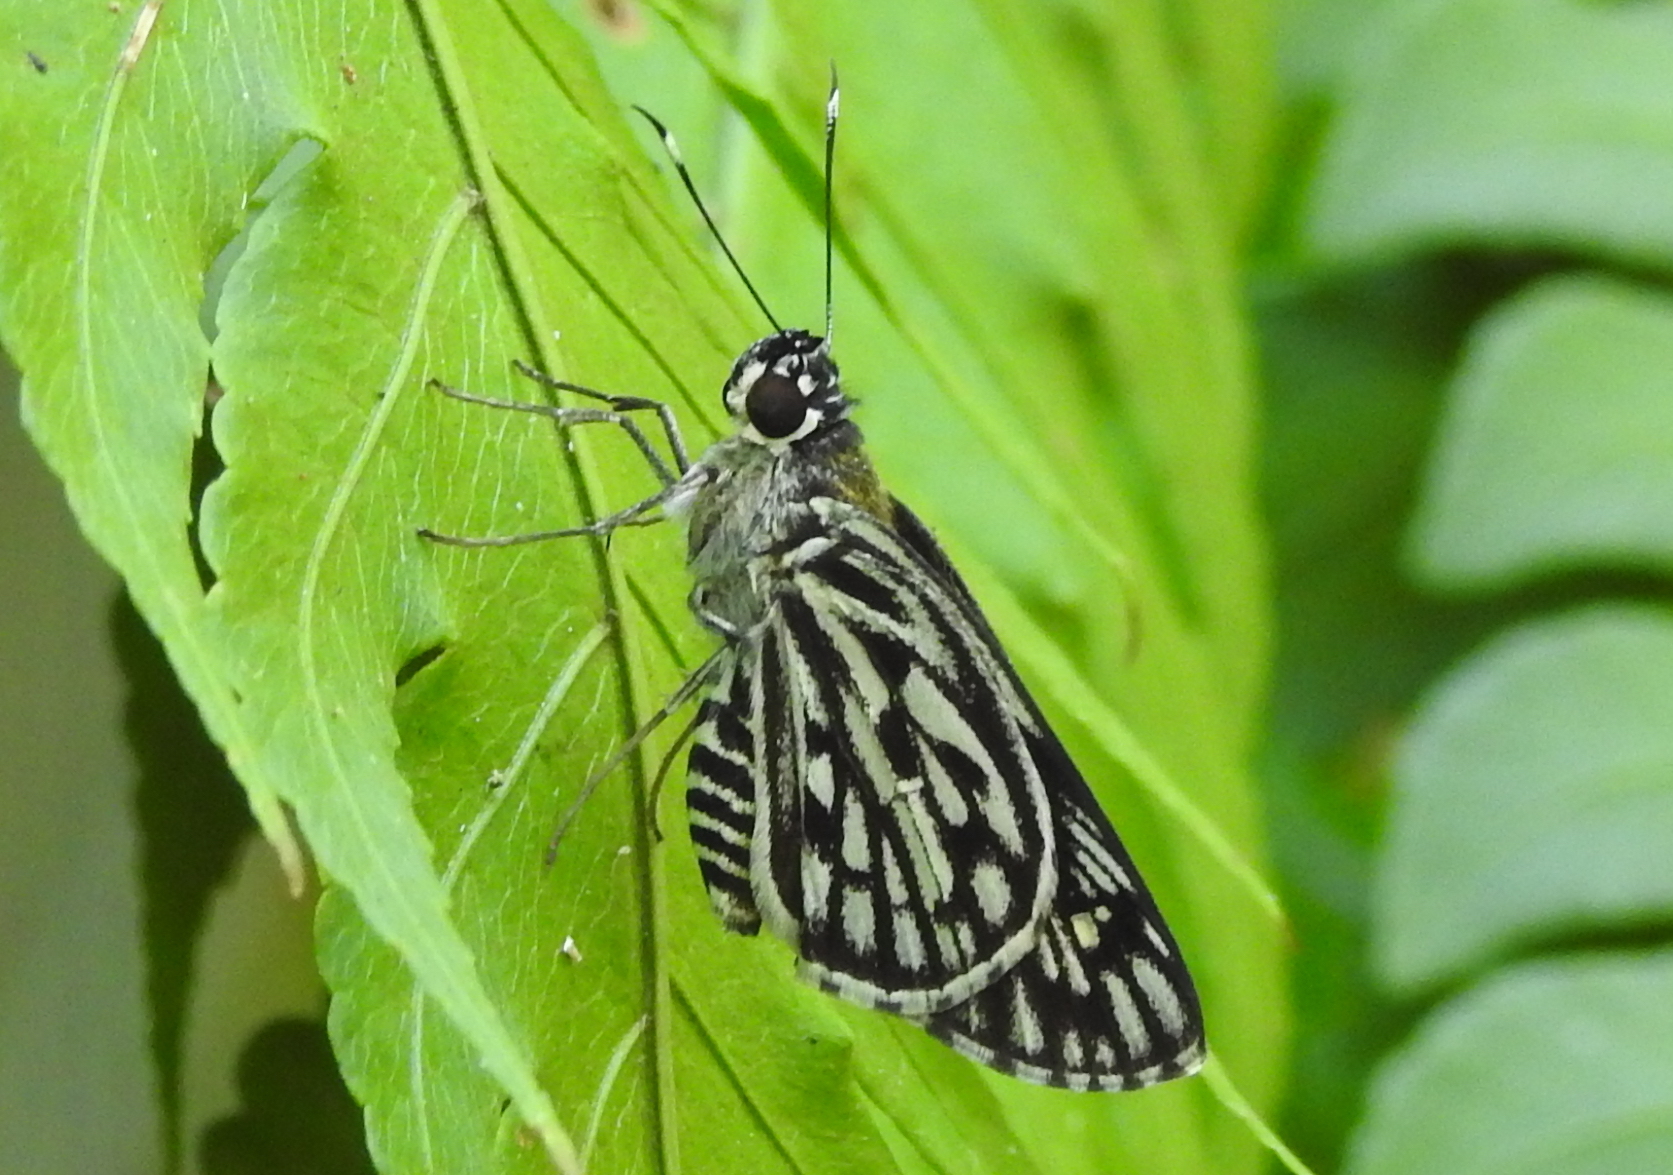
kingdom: Animalia
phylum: Arthropoda
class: Insecta
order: Lepidoptera
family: Hesperiidae
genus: Plastingia
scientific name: Plastingia naga
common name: Chequered lancer
